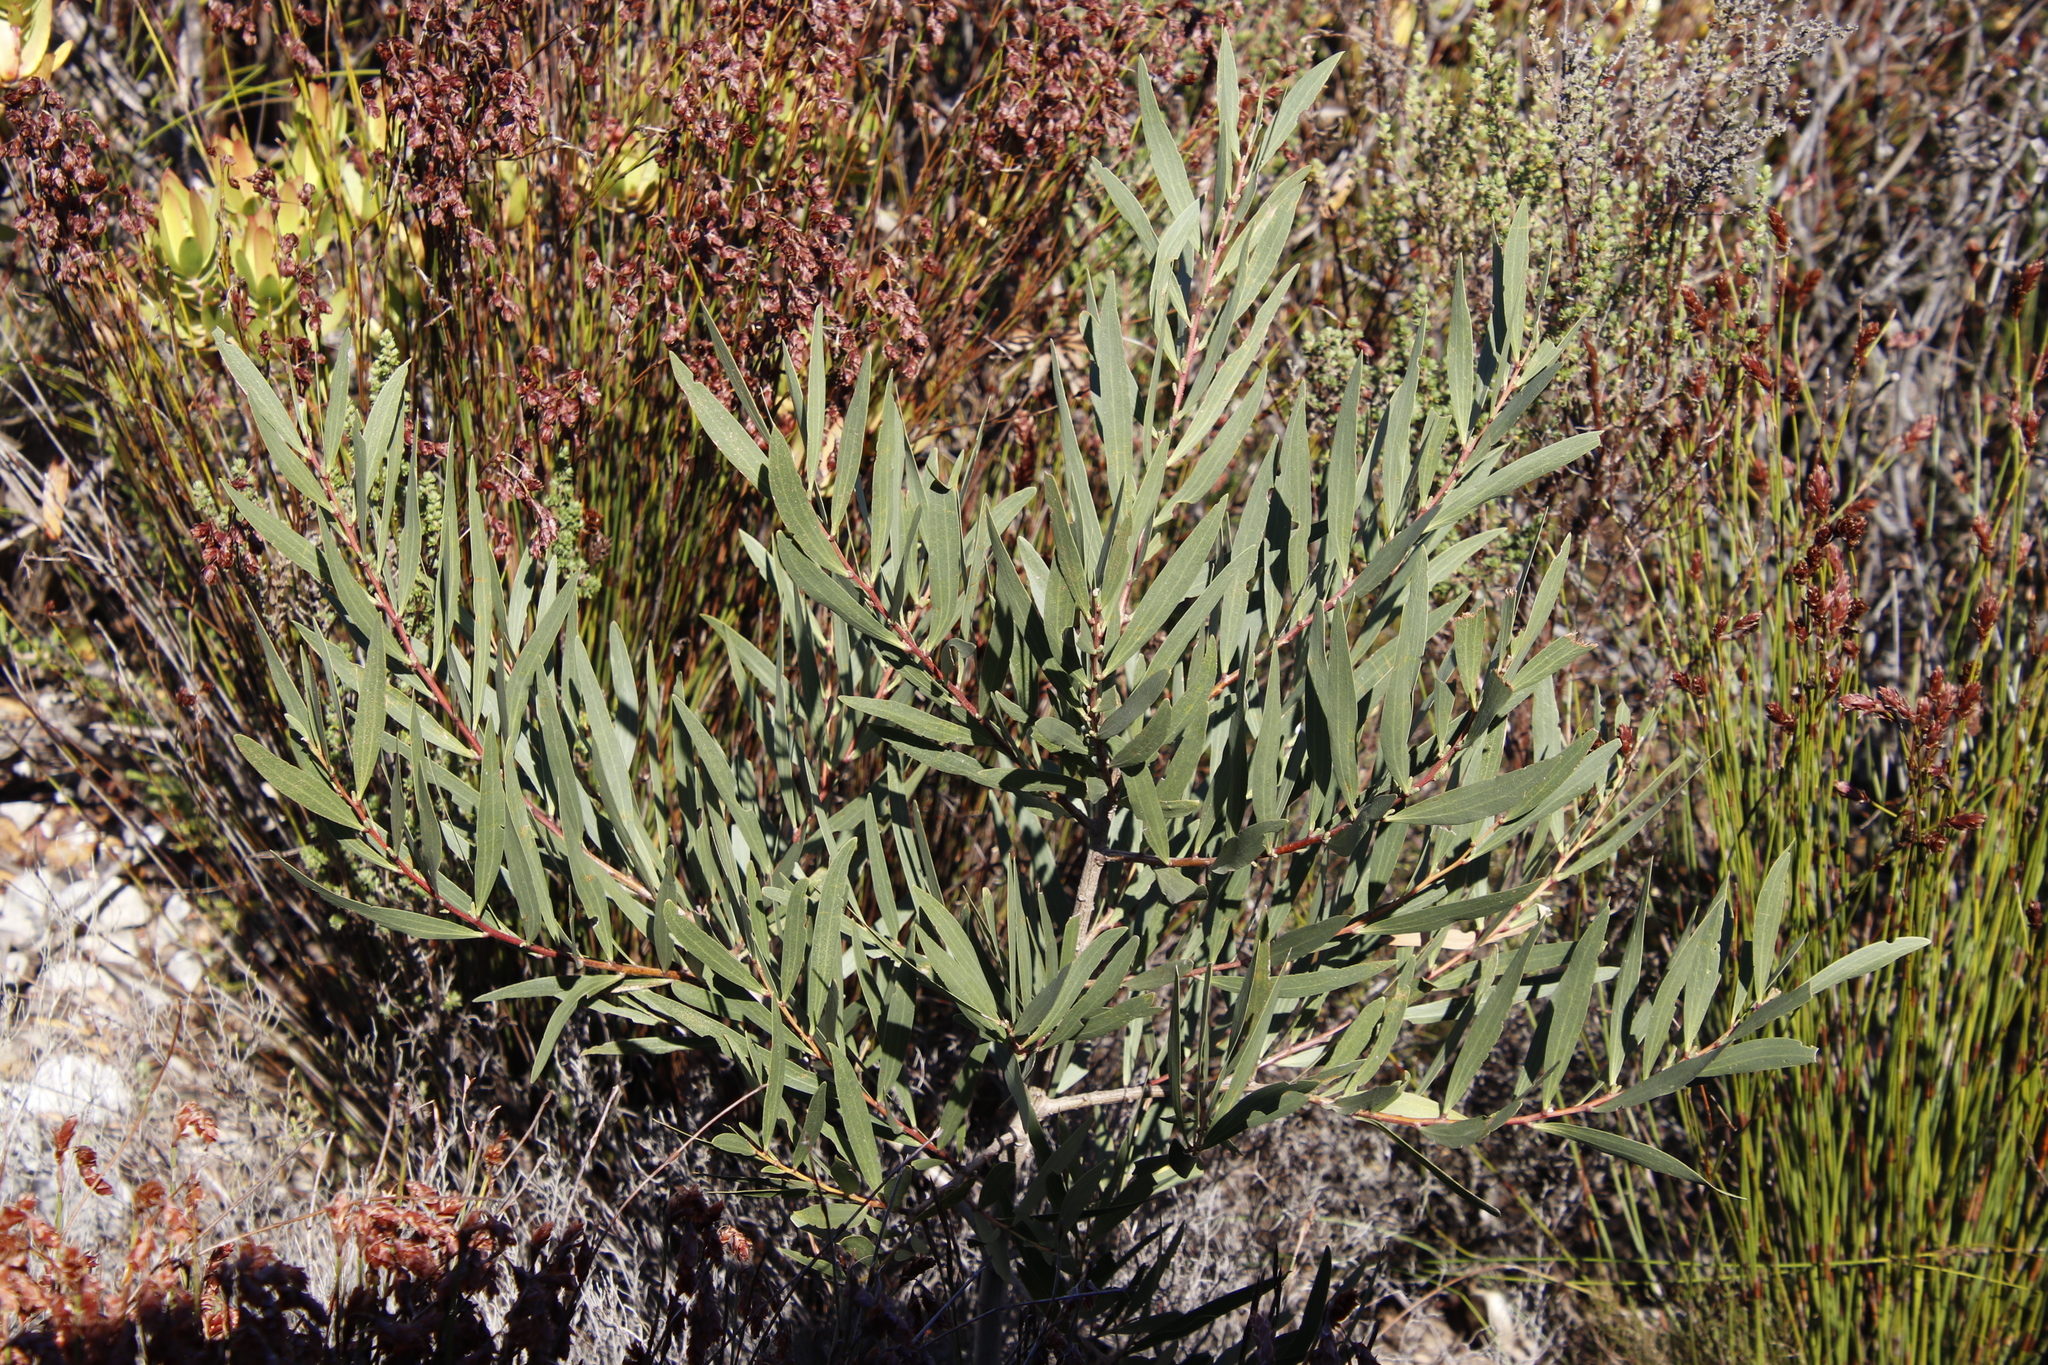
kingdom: Plantae
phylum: Tracheophyta
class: Magnoliopsida
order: Fabales
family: Fabaceae
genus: Acacia
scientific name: Acacia longifolia
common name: Sydney golden wattle
